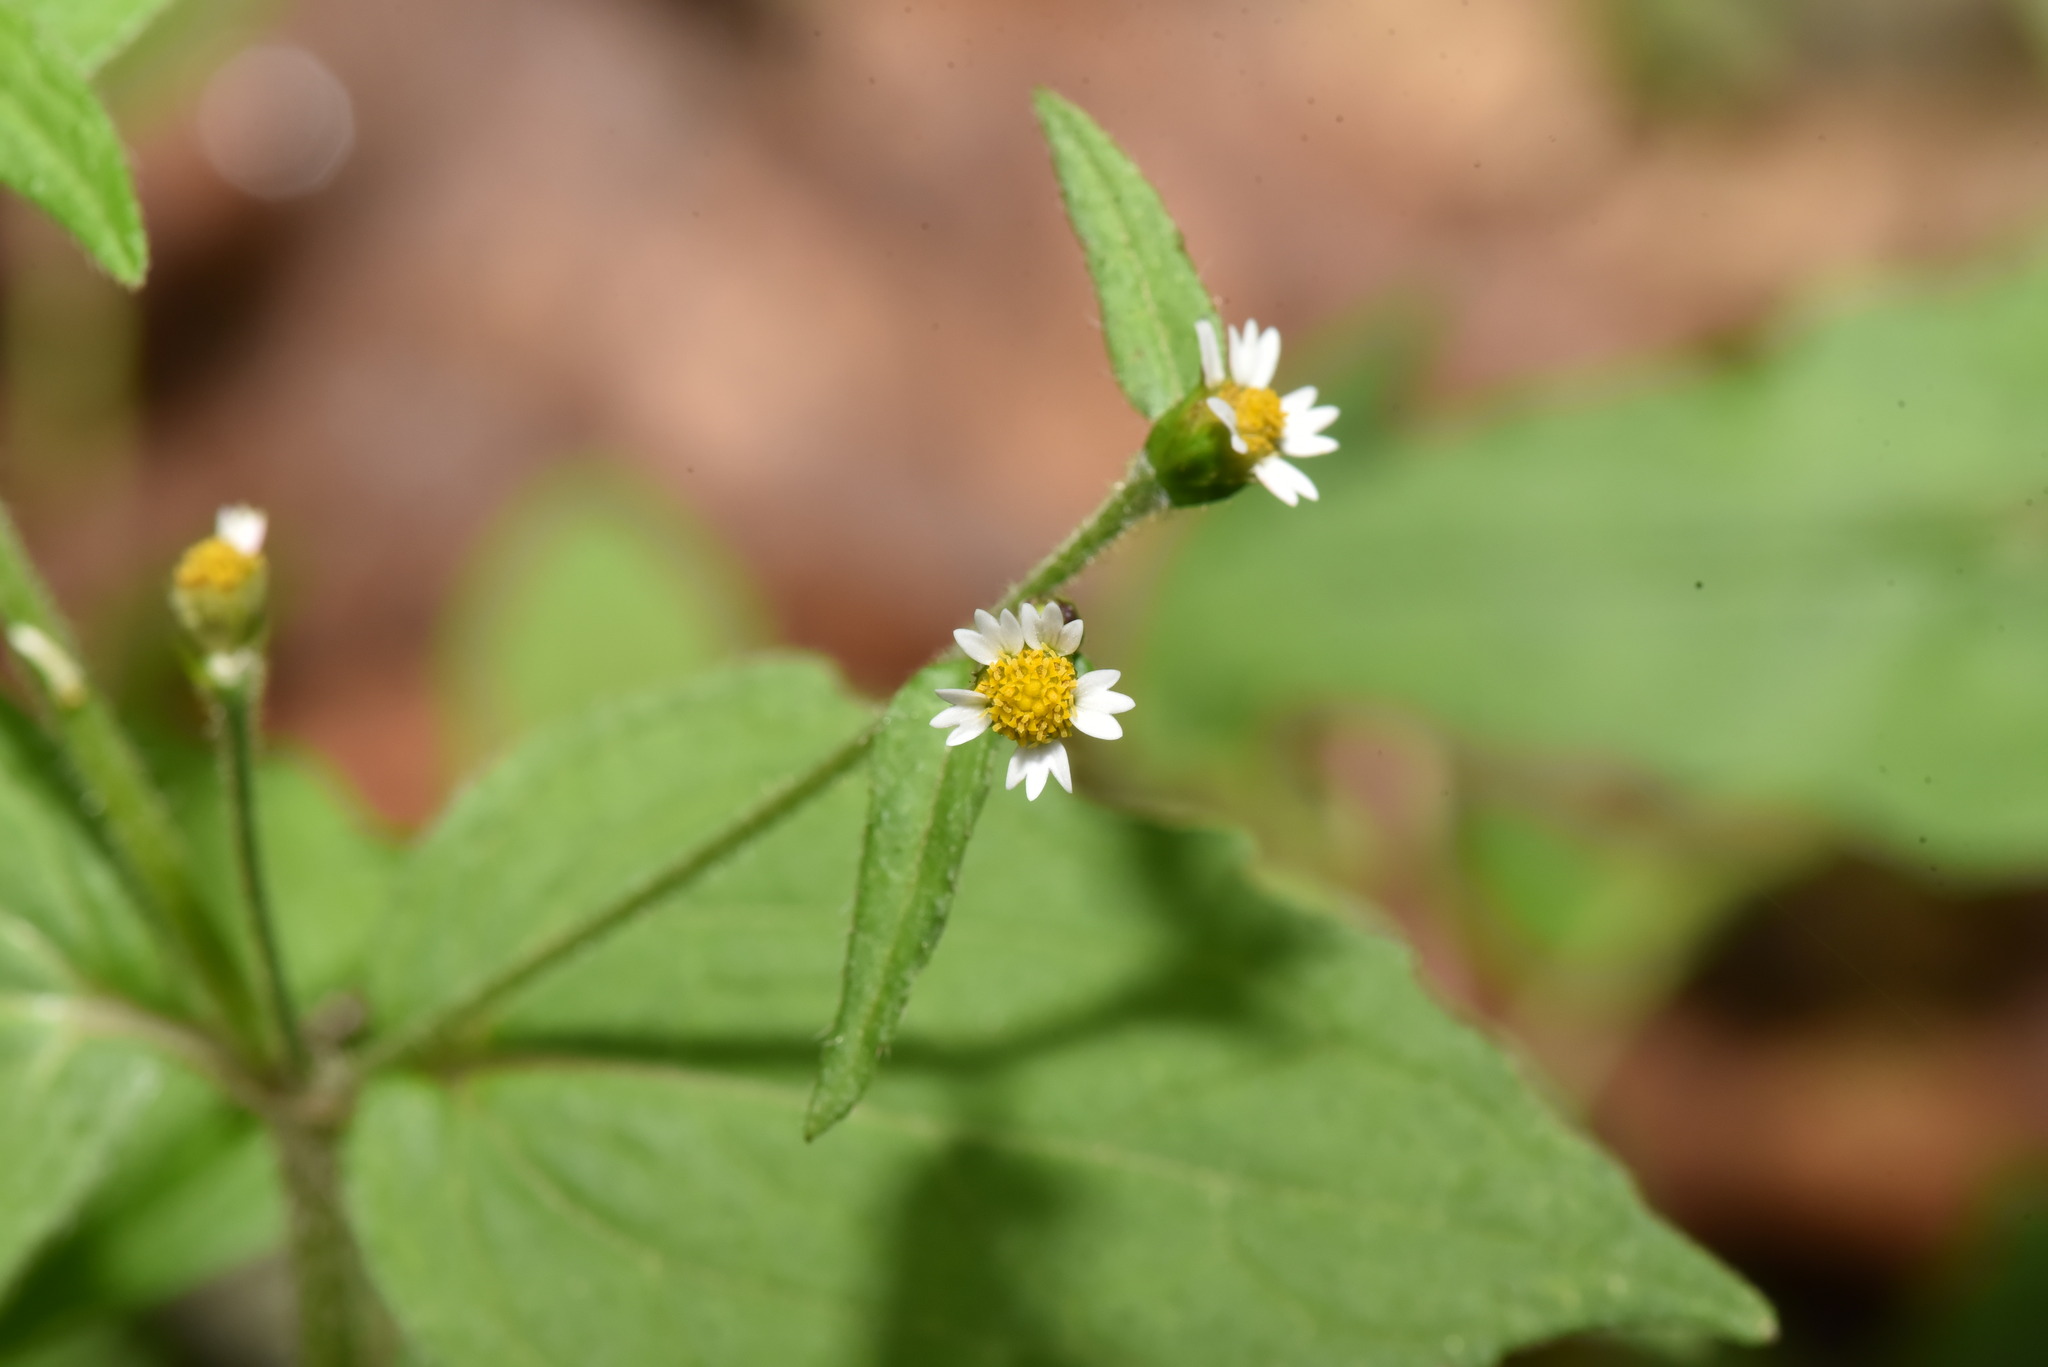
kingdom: Plantae
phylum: Tracheophyta
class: Magnoliopsida
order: Asterales
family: Asteraceae
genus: Galinsoga
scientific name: Galinsoga quadriradiata
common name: Shaggy soldier
